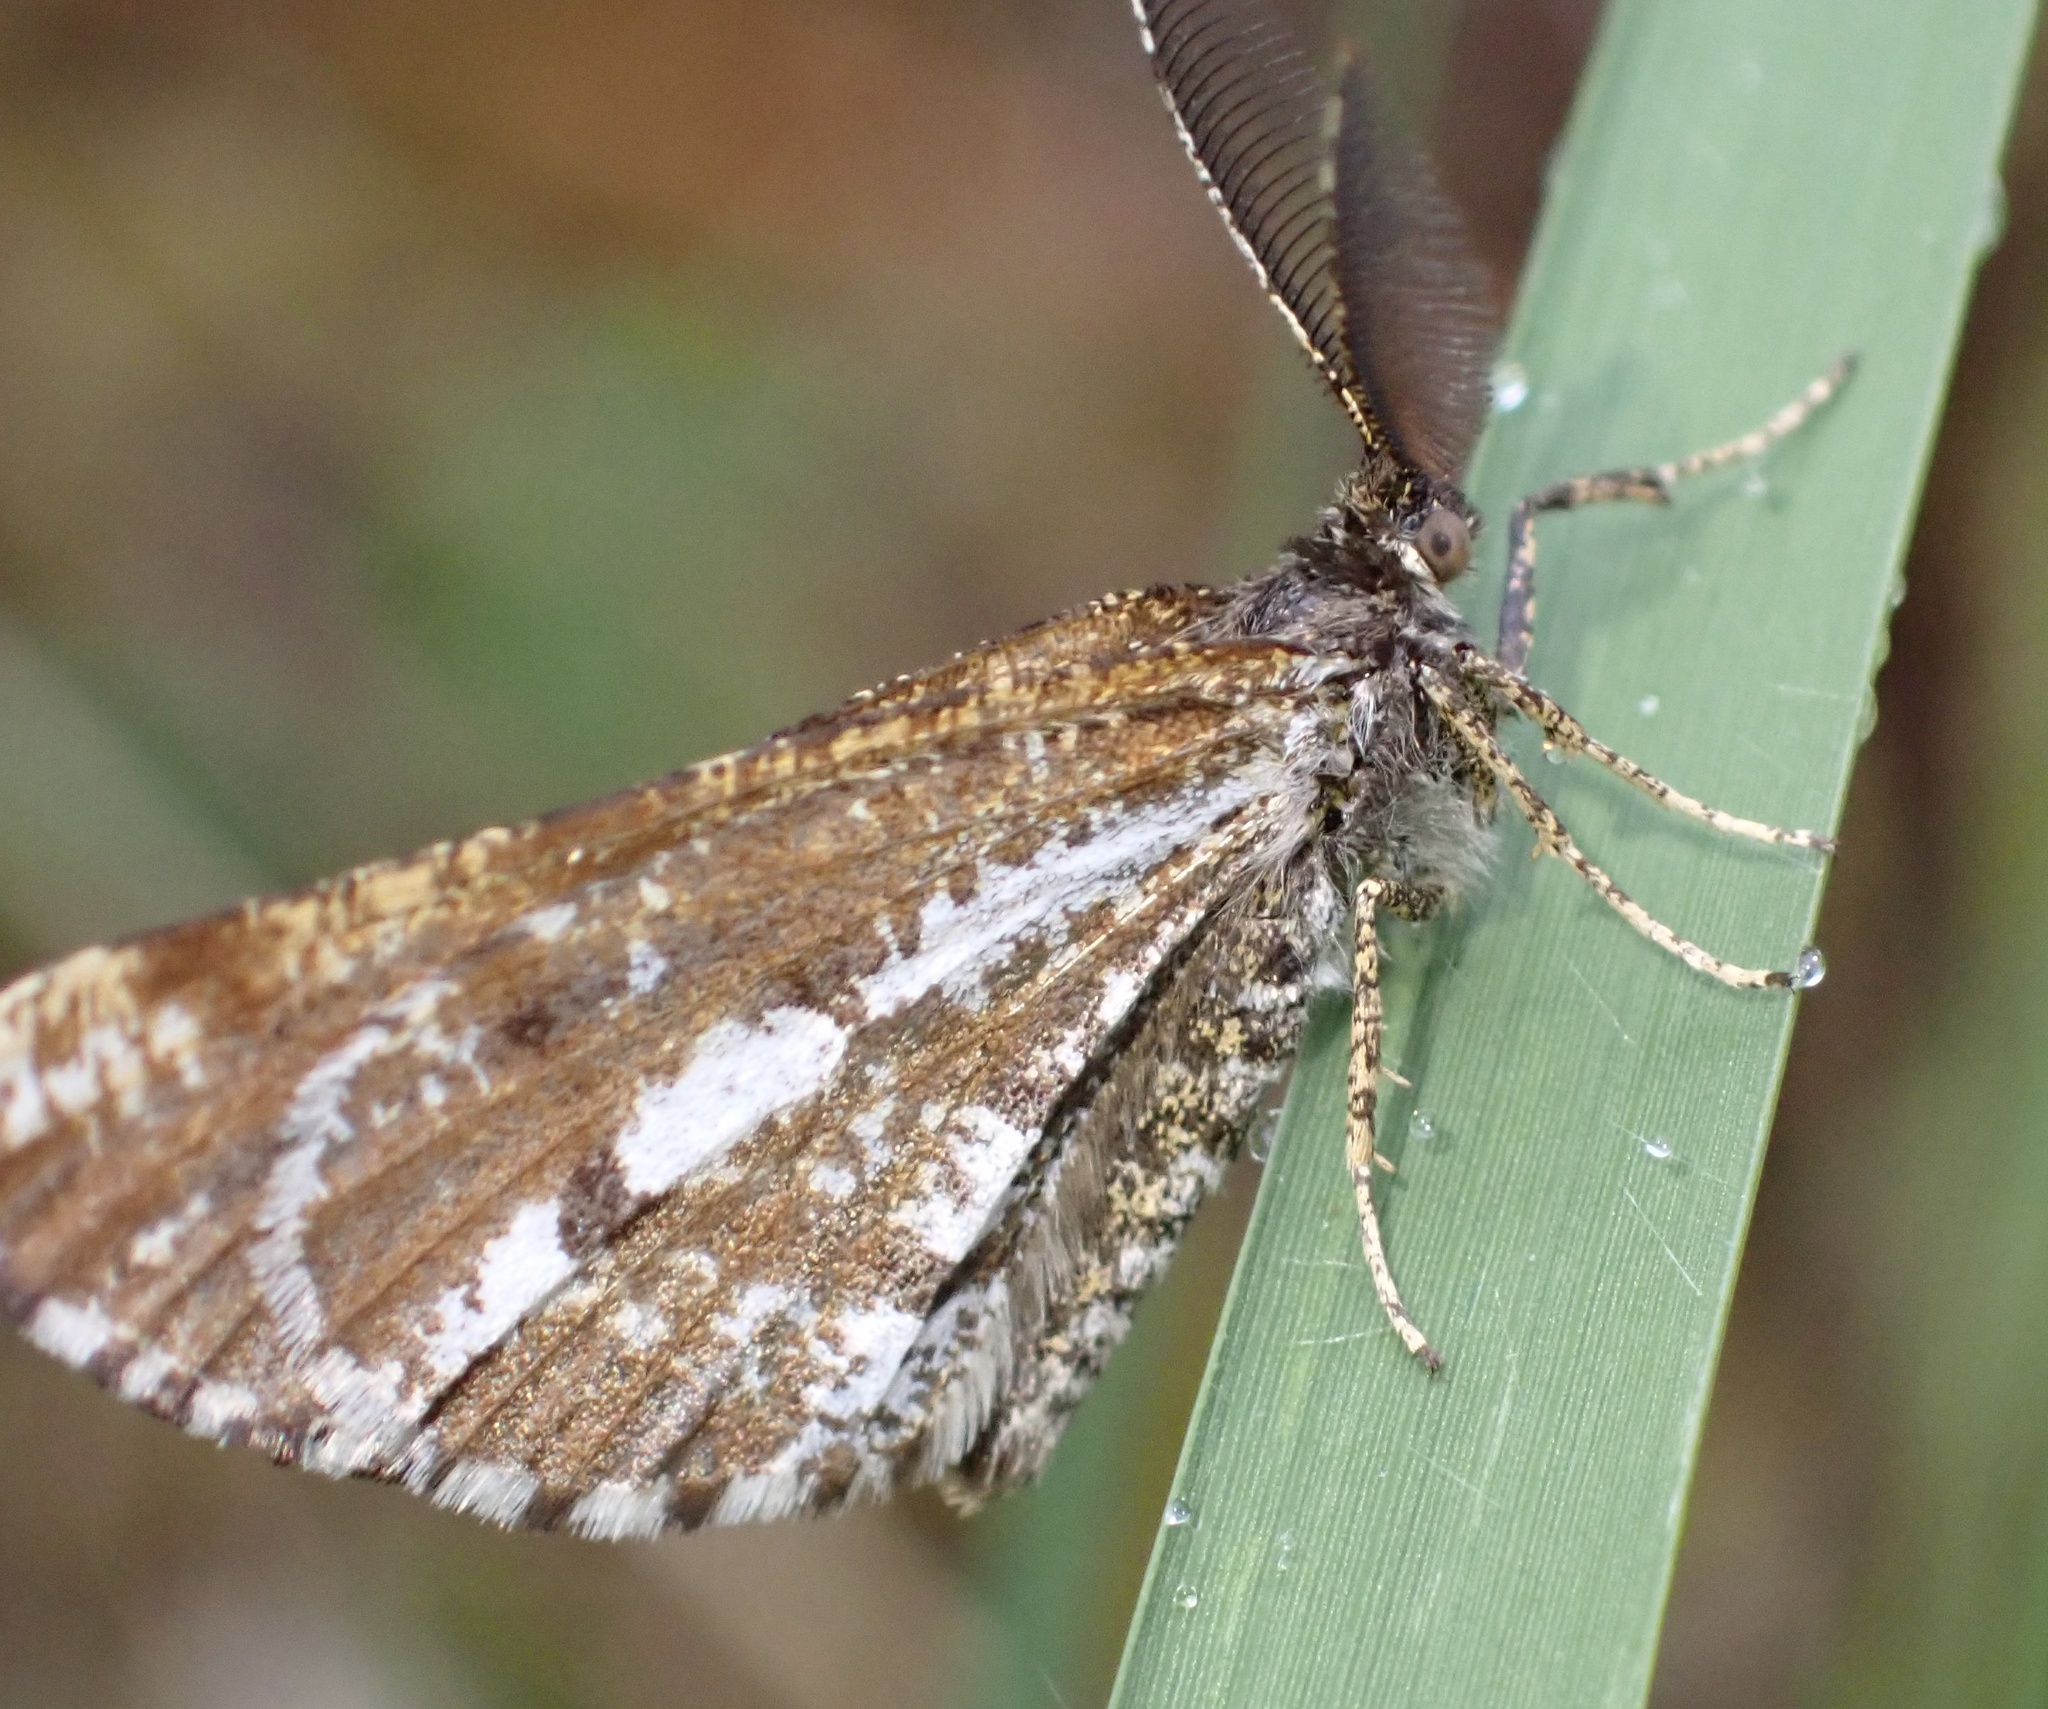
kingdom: Animalia
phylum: Arthropoda
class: Insecta
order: Lepidoptera
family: Geometridae
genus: Bupalus
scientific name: Bupalus piniaria
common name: Bordered white
